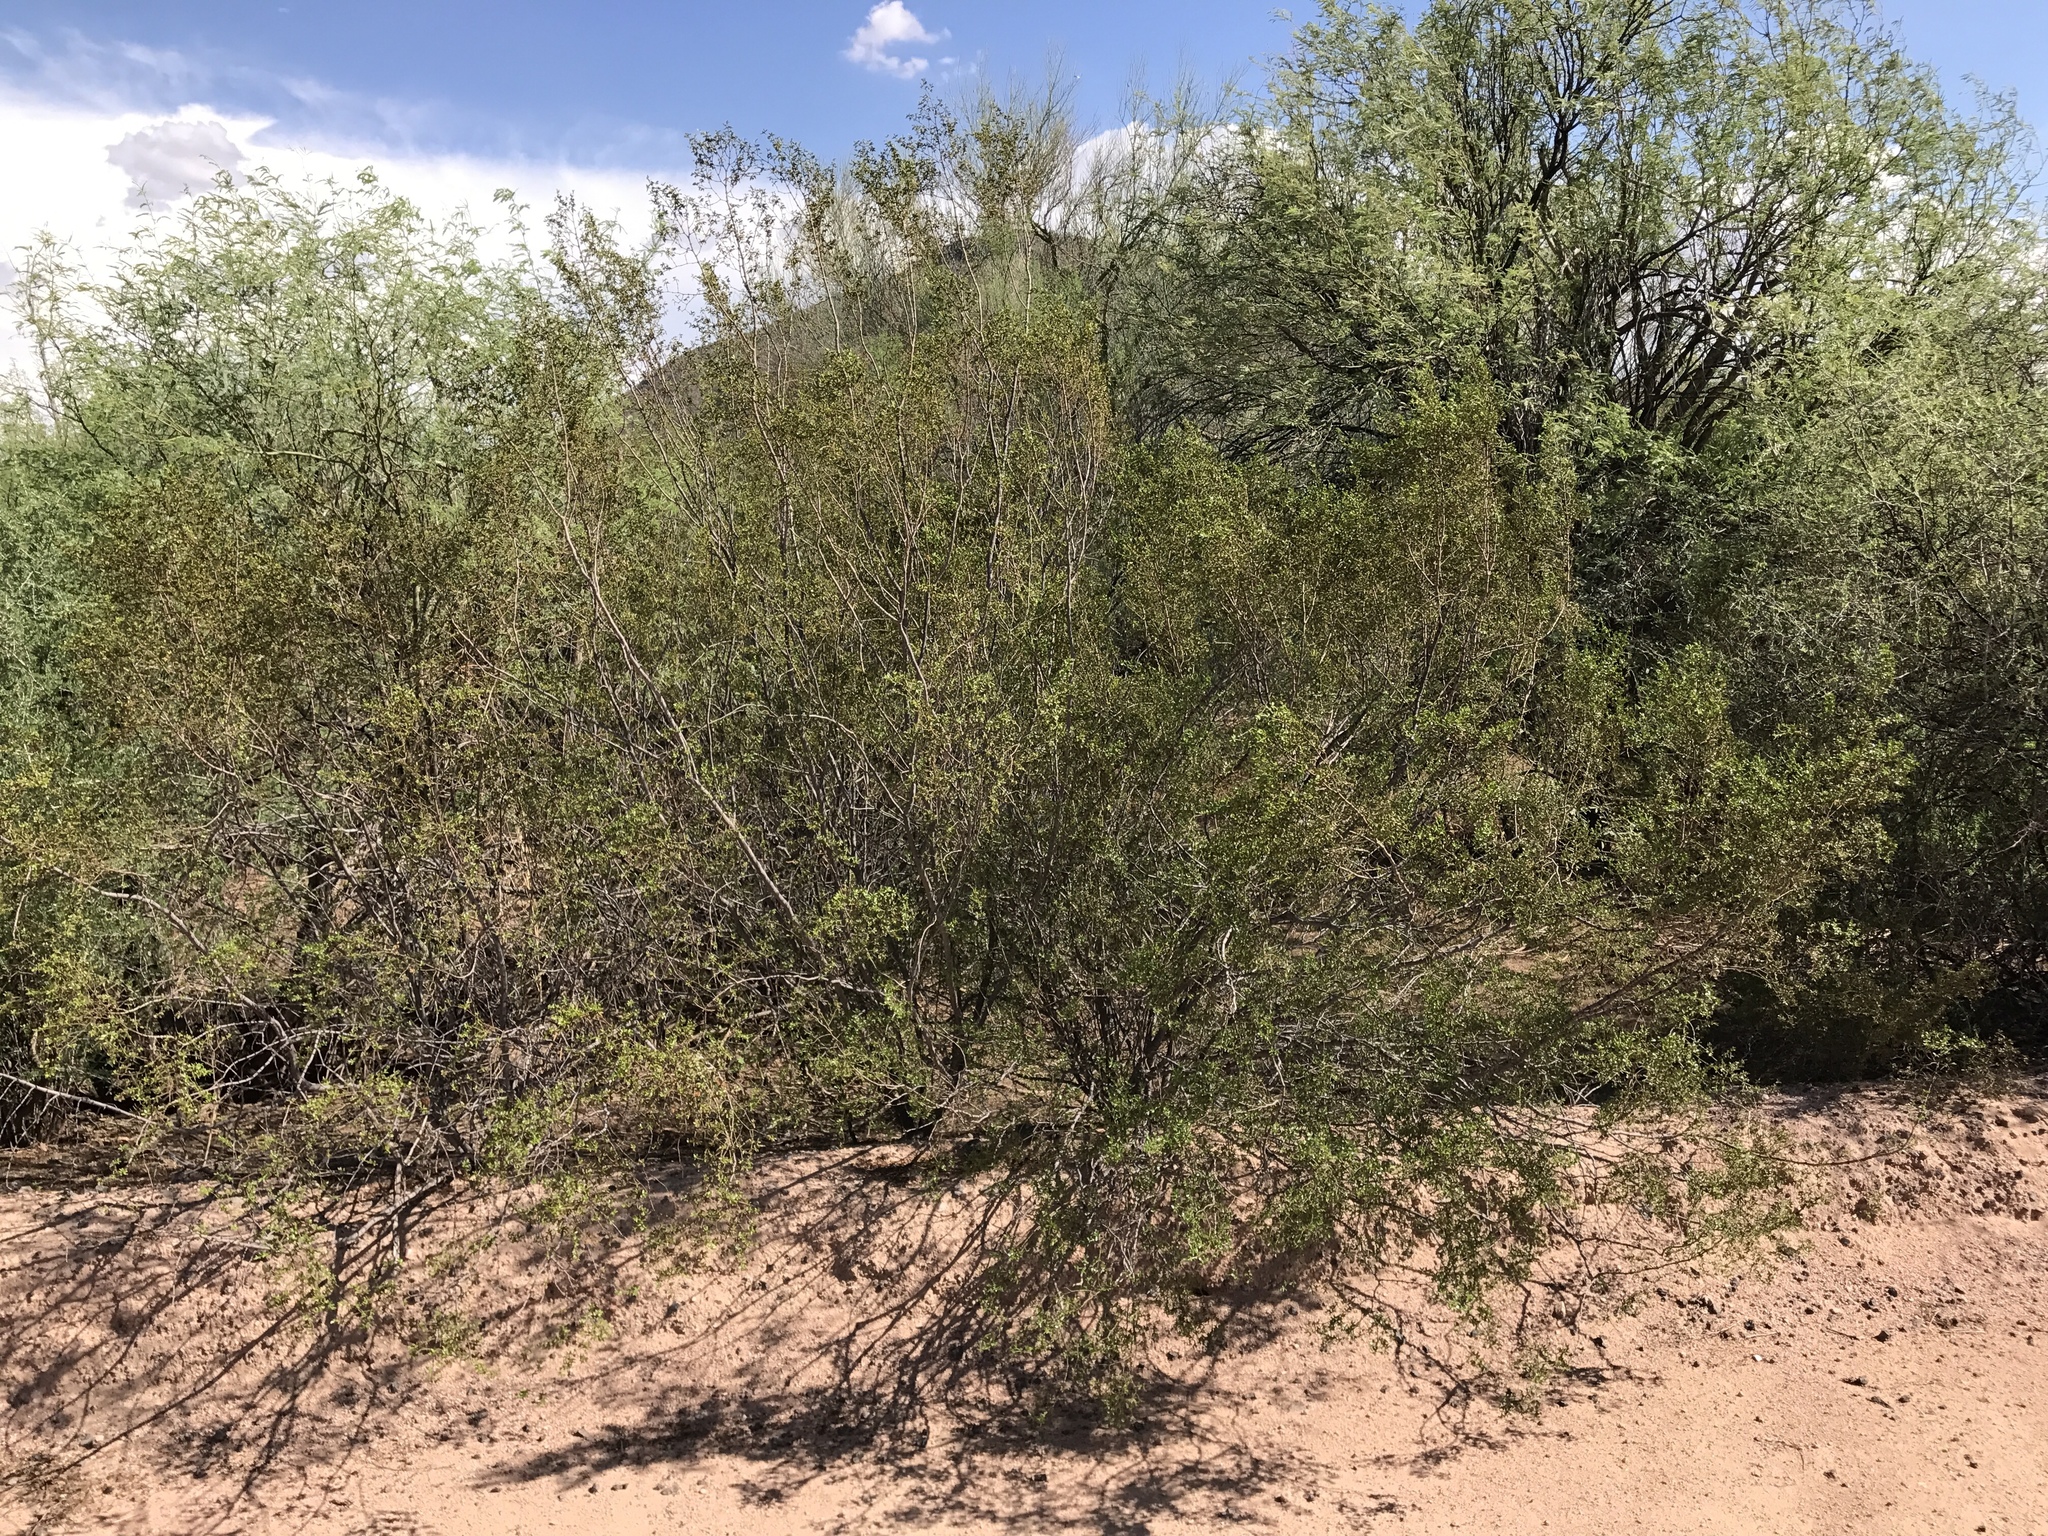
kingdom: Plantae
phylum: Tracheophyta
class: Magnoliopsida
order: Zygophyllales
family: Zygophyllaceae
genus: Larrea
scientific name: Larrea tridentata
